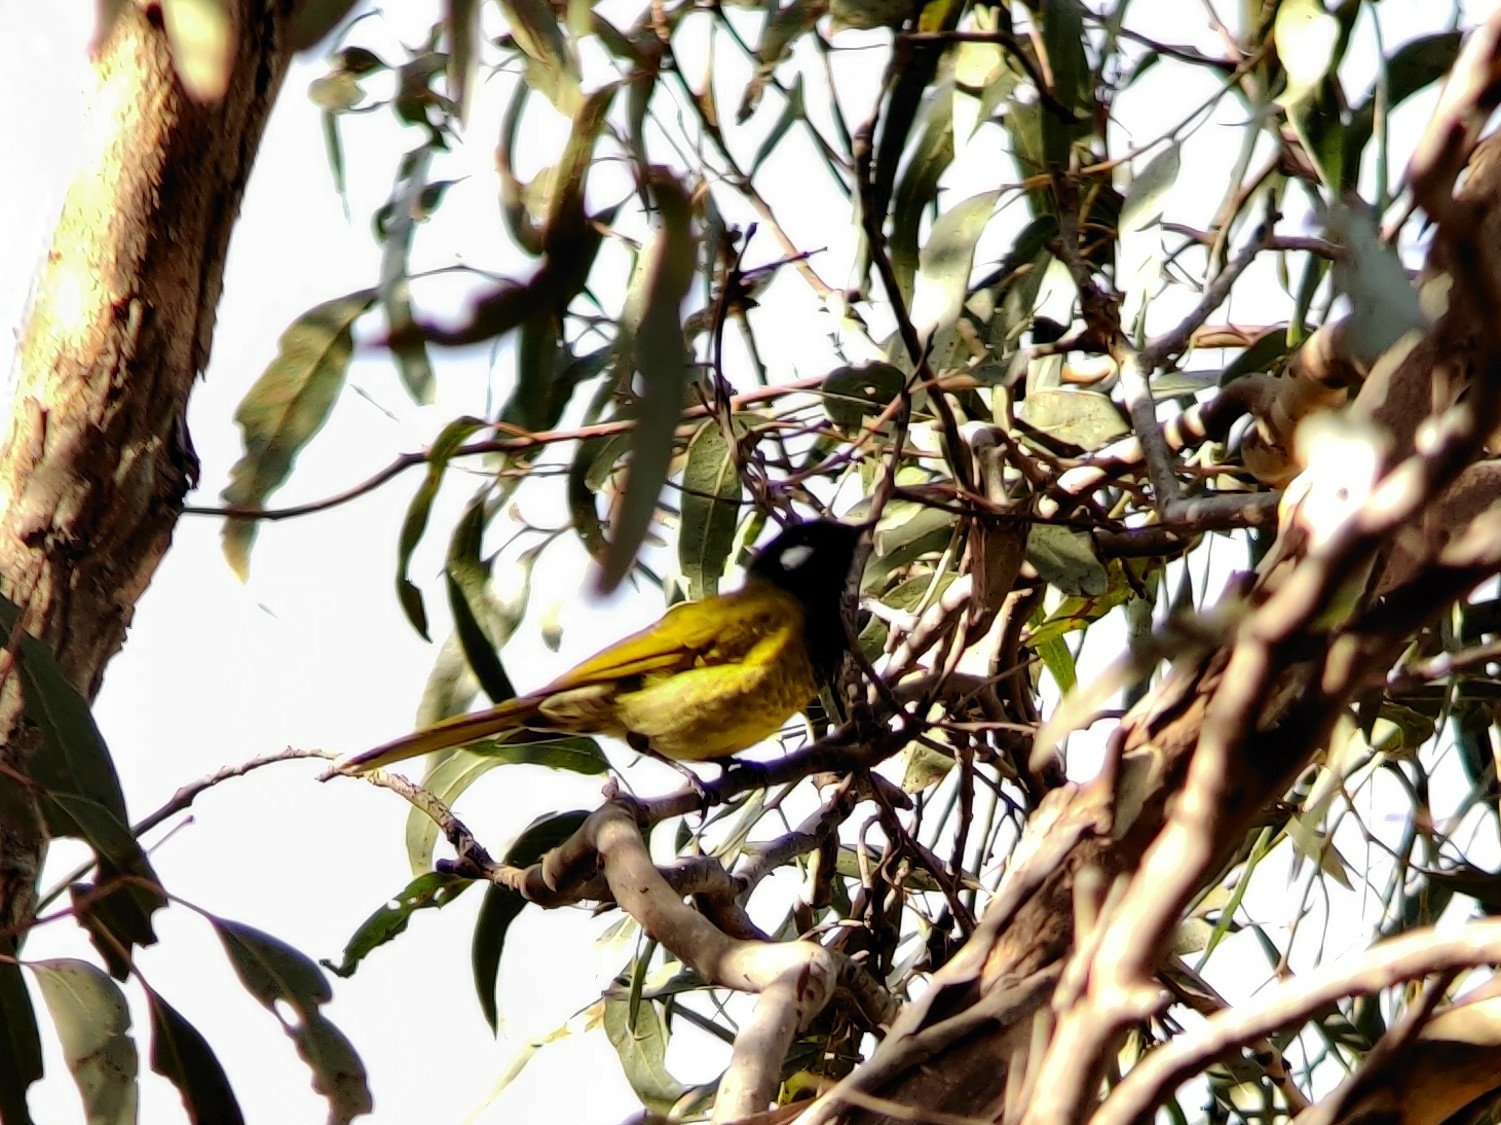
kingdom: Animalia
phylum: Chordata
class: Aves
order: Passeriformes
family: Meliphagidae
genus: Nesoptilotis
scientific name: Nesoptilotis leucotis
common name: White-eared honeyeater
